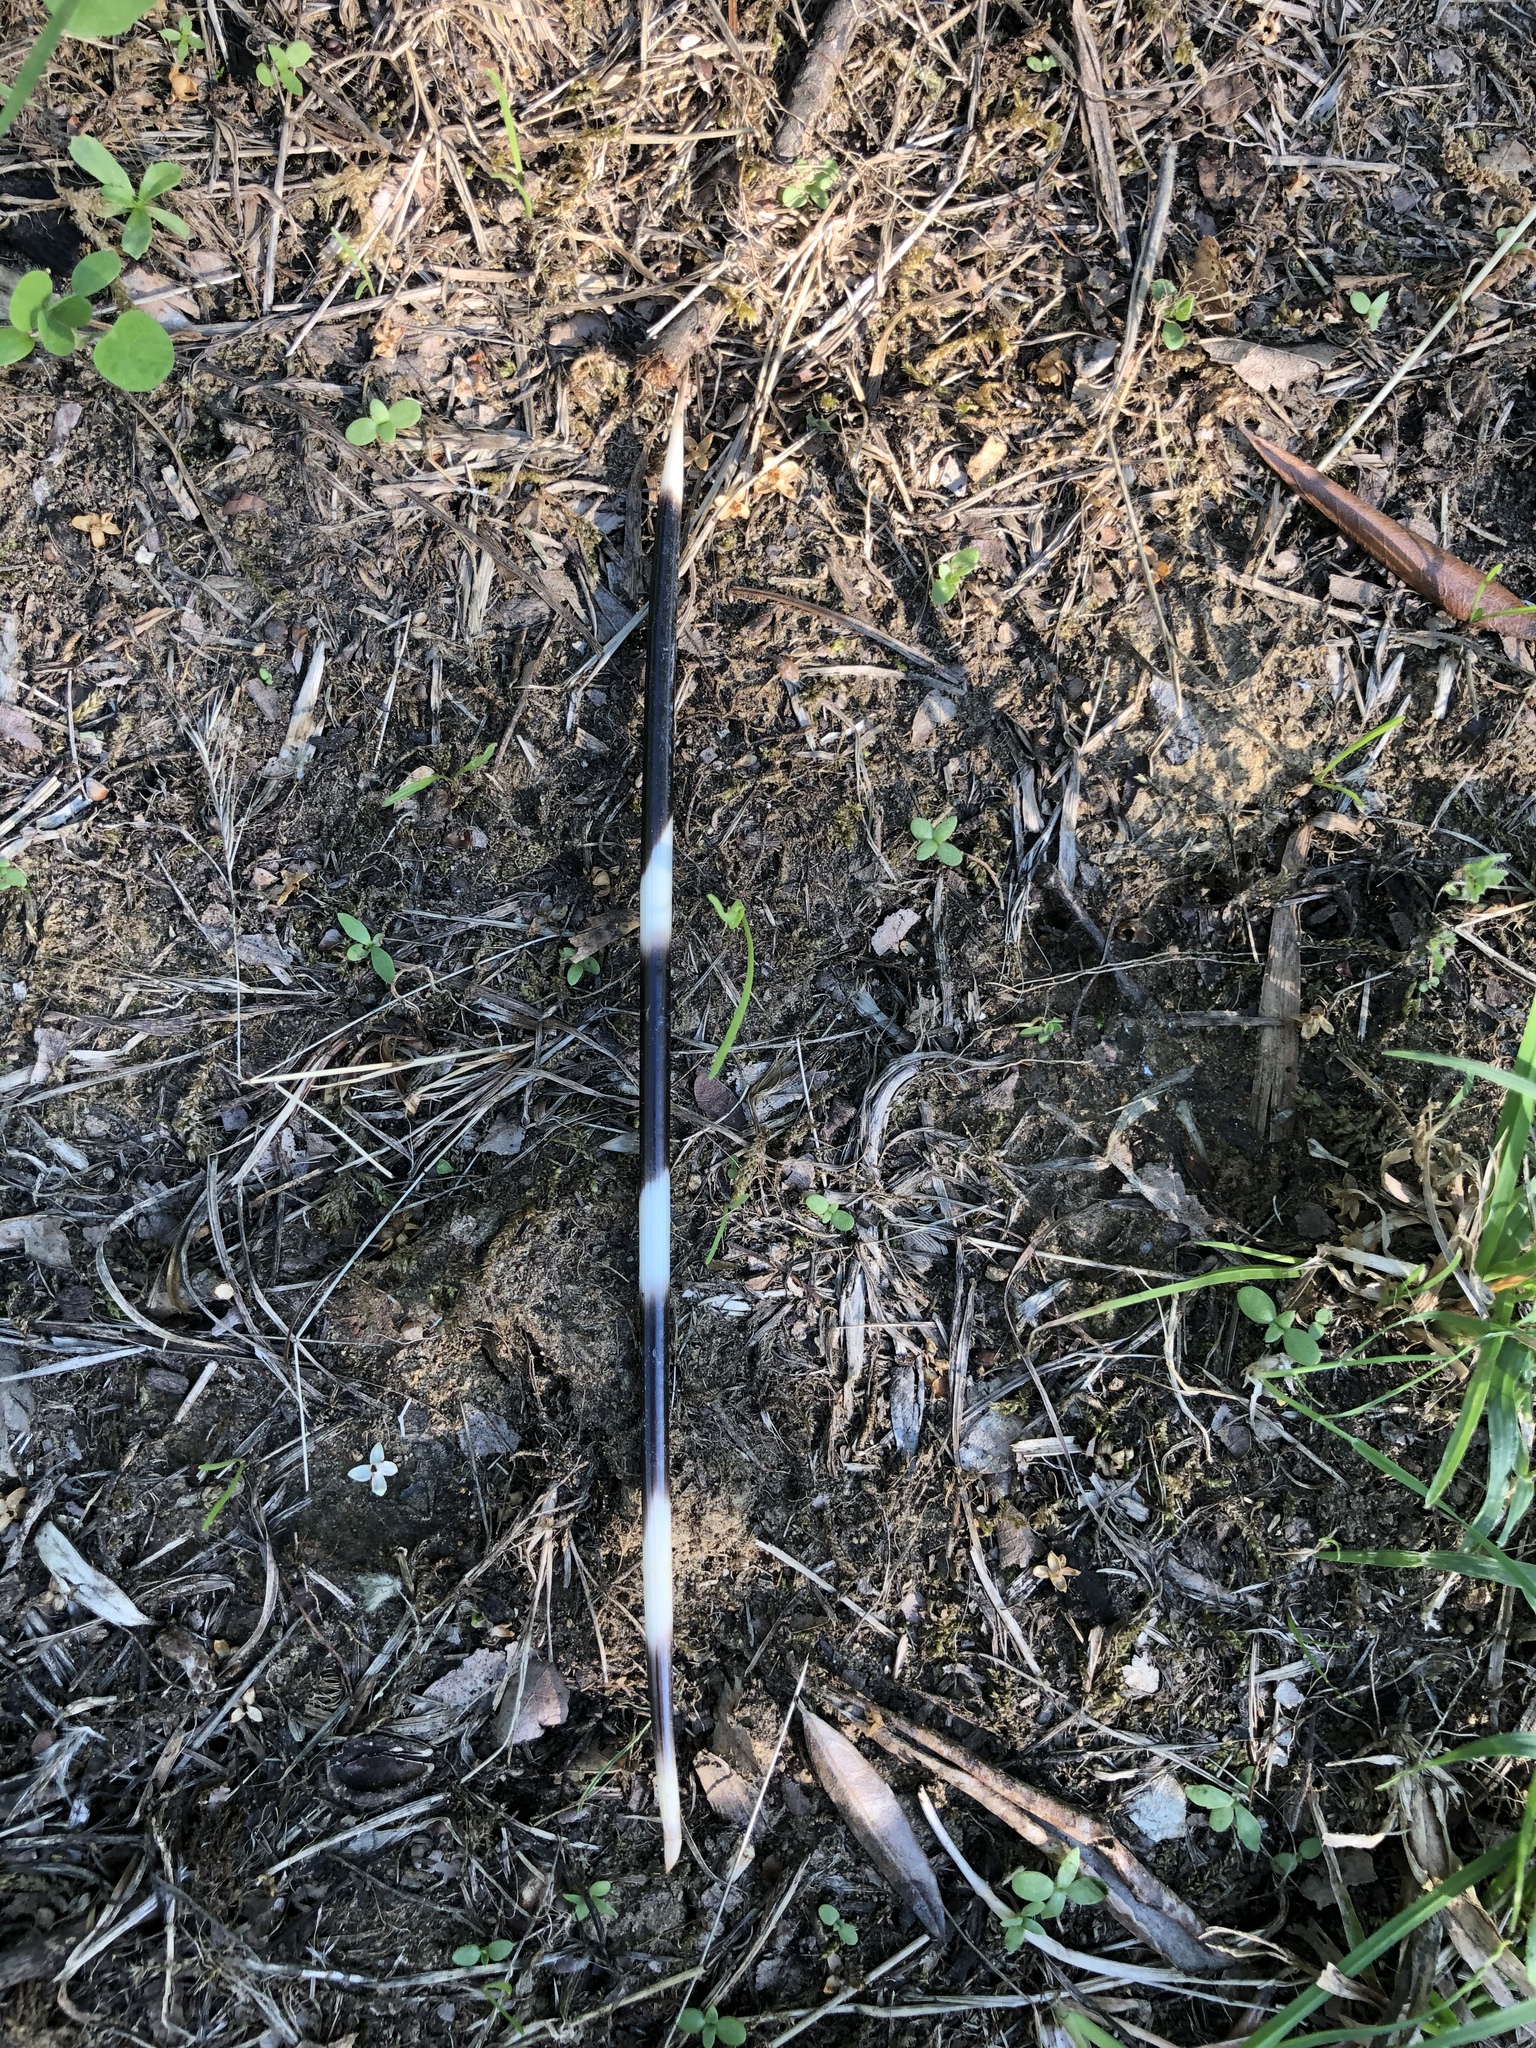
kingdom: Animalia
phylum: Chordata
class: Mammalia
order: Rodentia
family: Hystricidae
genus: Hystrix
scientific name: Hystrix cristata
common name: Crested porcupine
